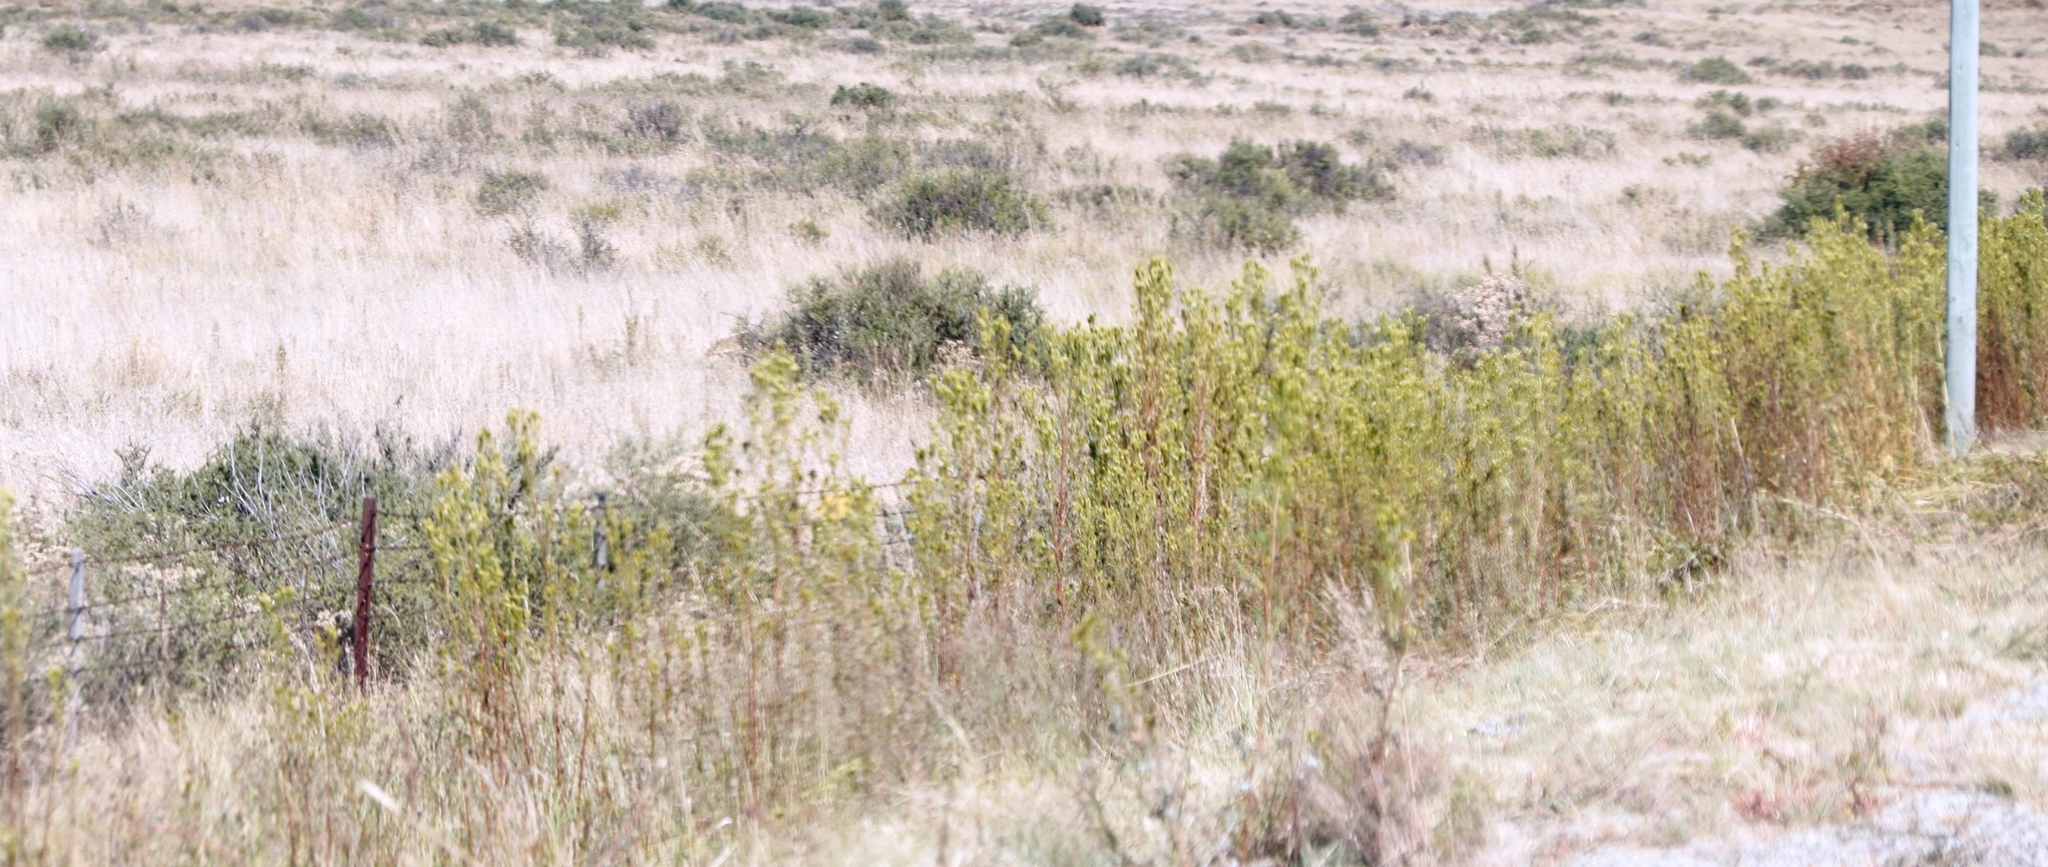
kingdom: Plantae
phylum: Tracheophyta
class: Magnoliopsida
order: Asterales
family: Asteraceae
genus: Tagetes
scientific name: Tagetes minuta
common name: Muster john henry
